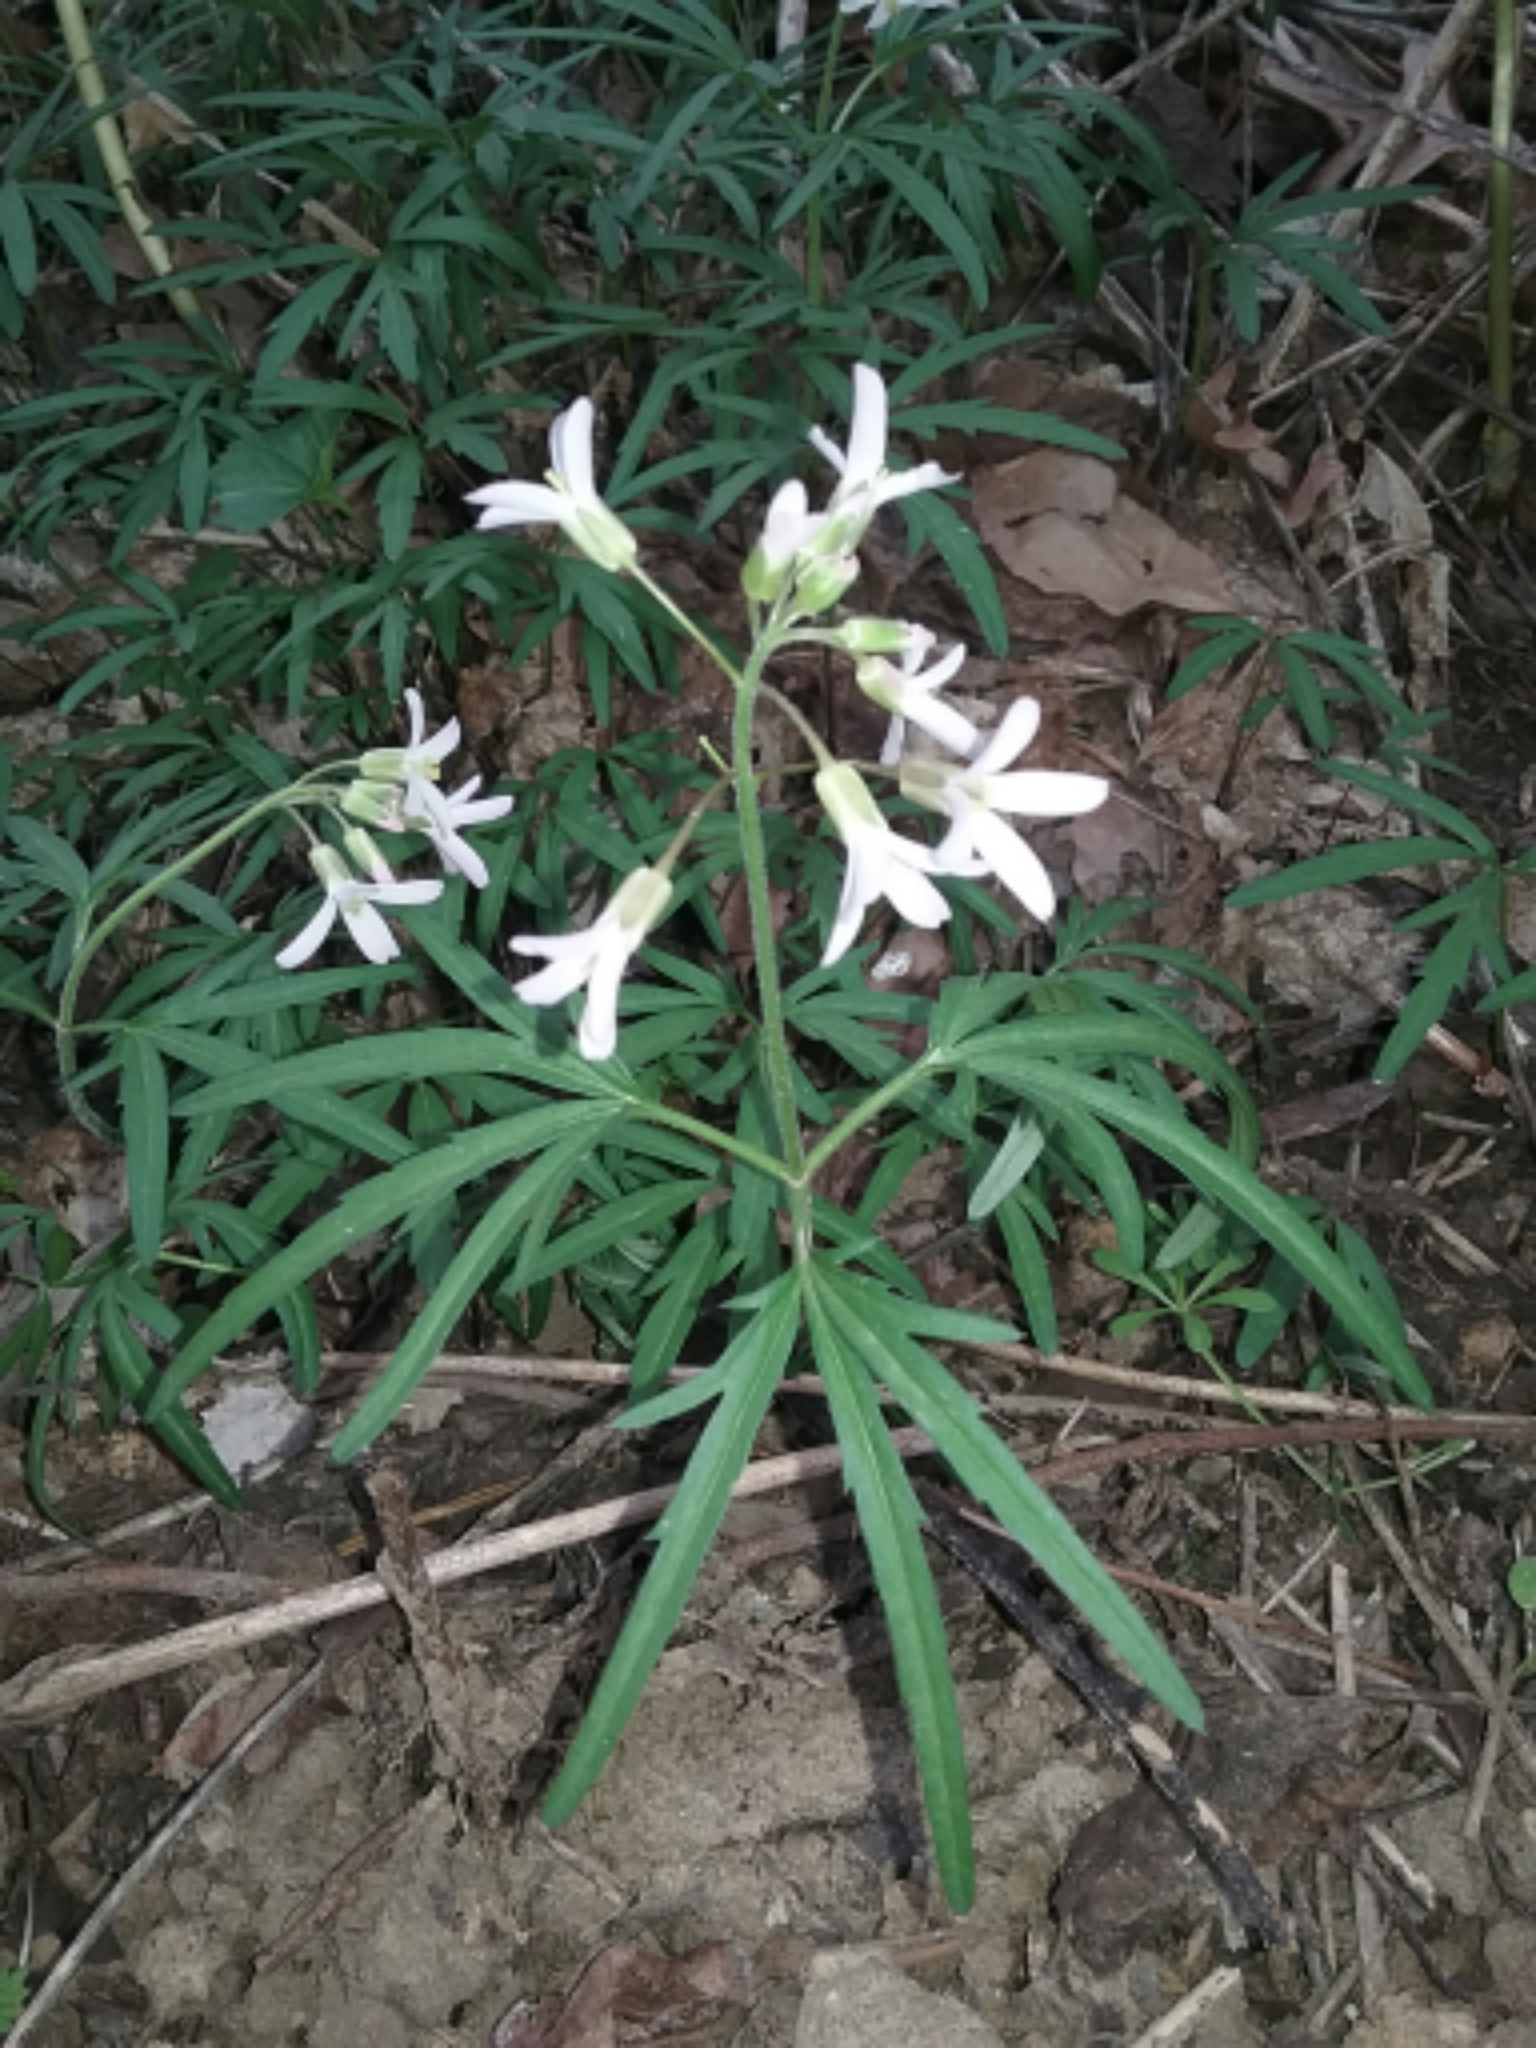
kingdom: Plantae
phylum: Tracheophyta
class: Magnoliopsida
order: Brassicales
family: Brassicaceae
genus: Cardamine
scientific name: Cardamine concatenata
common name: Cut-leaf toothcup
